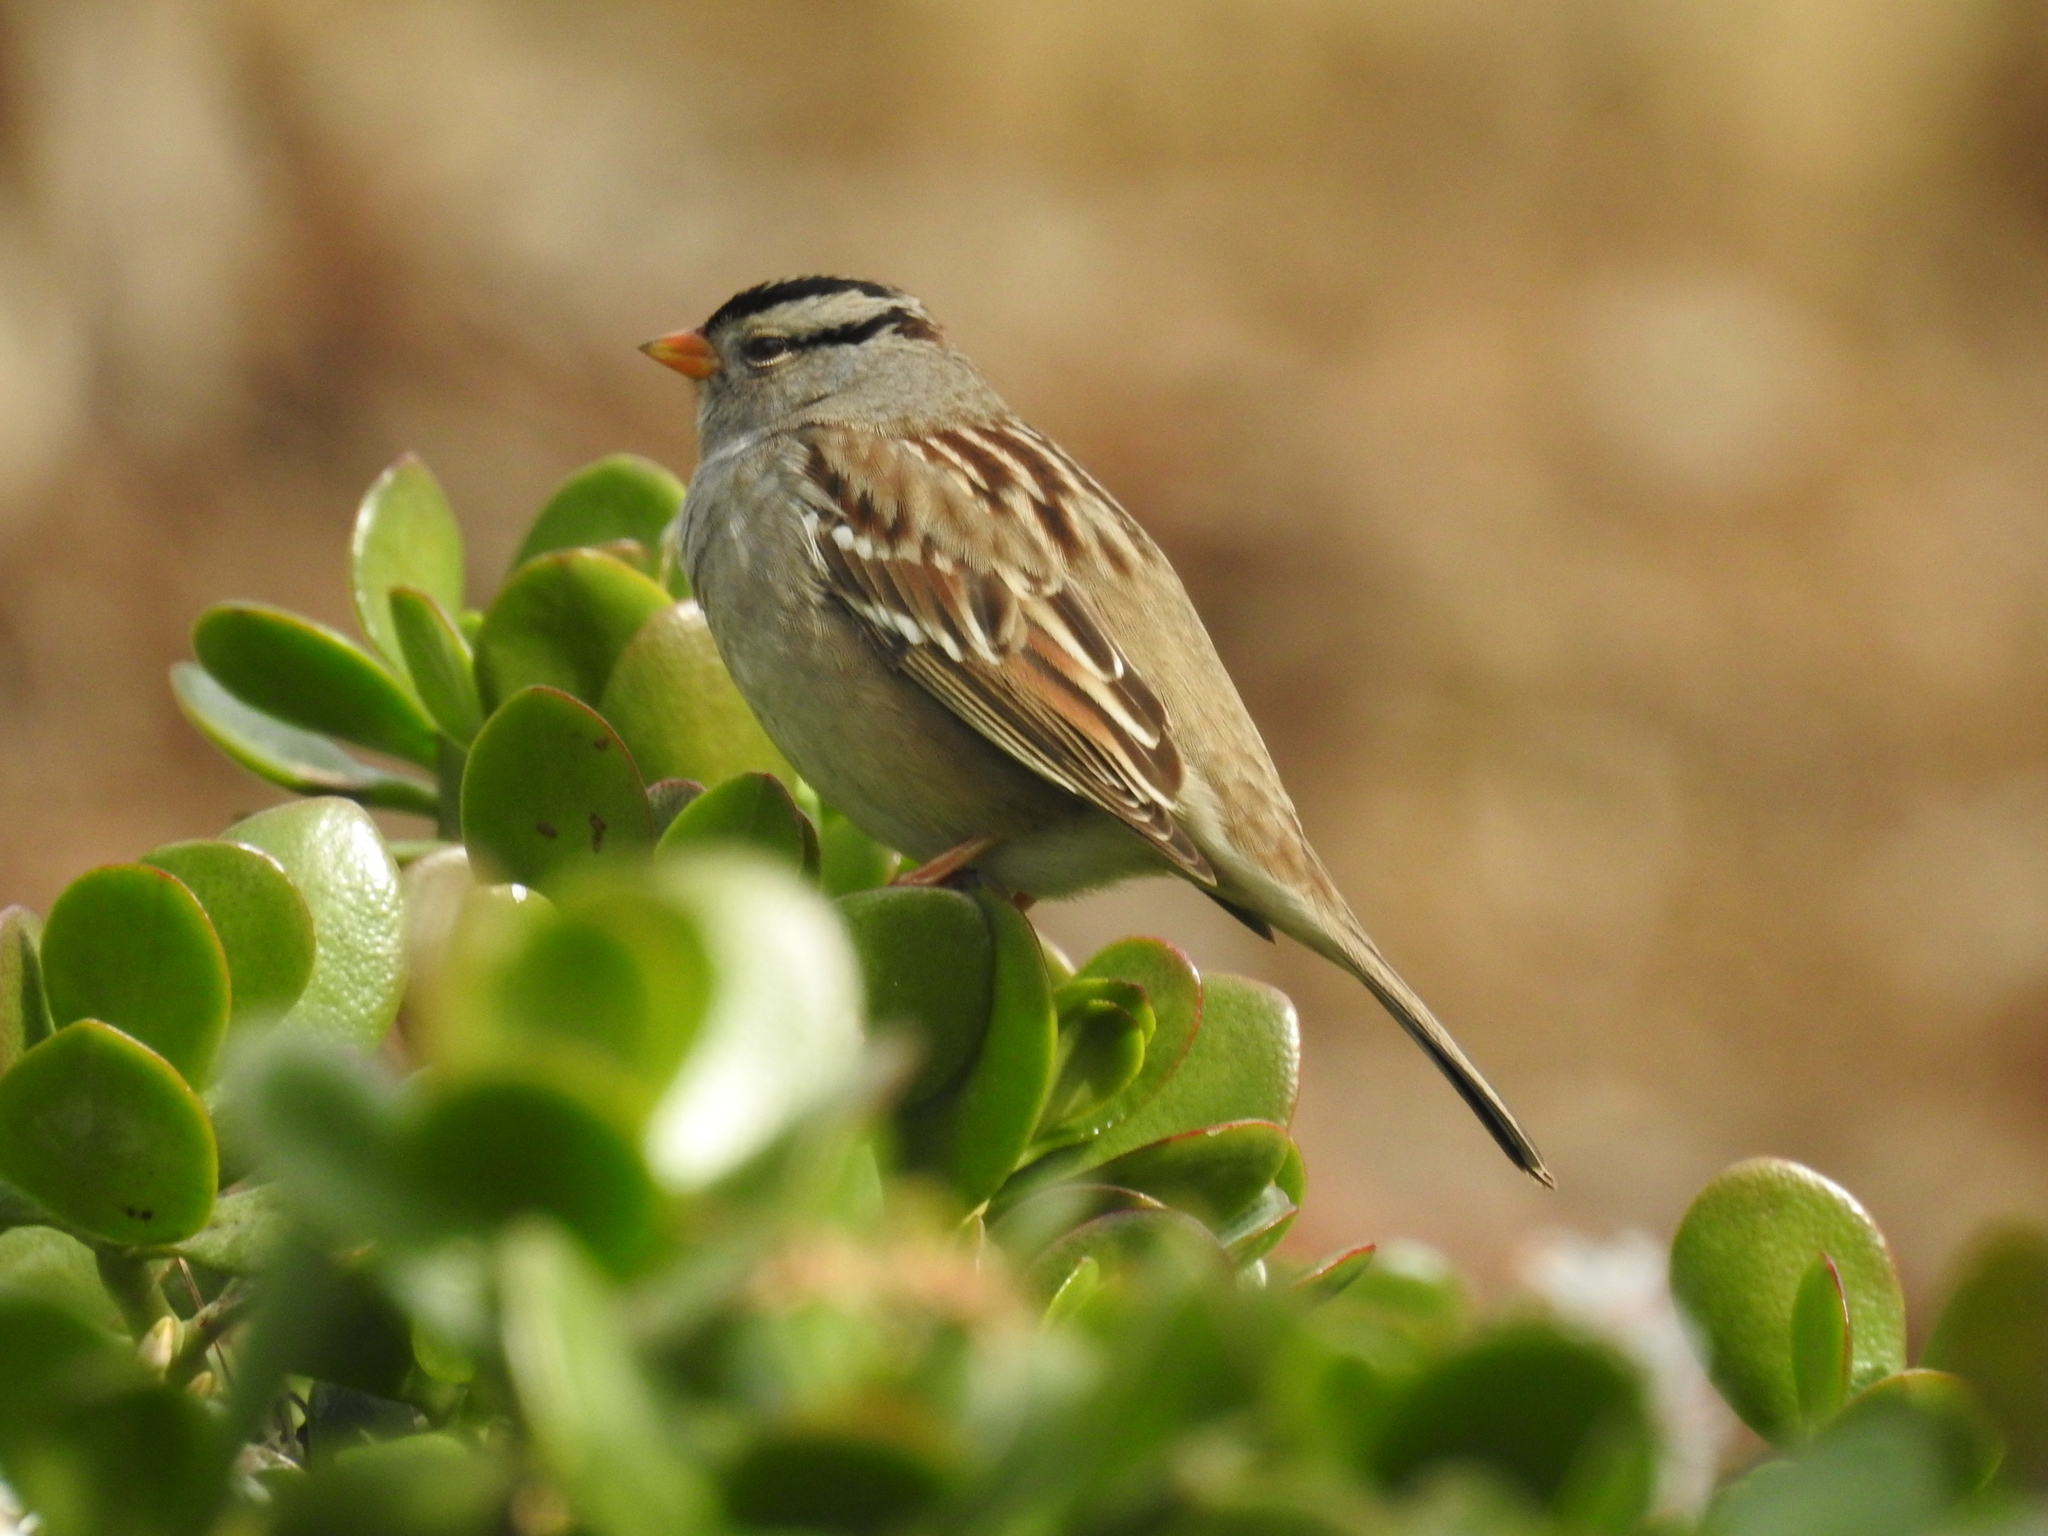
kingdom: Animalia
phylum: Chordata
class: Aves
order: Passeriformes
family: Passerellidae
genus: Zonotrichia
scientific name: Zonotrichia leucophrys
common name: White-crowned sparrow
